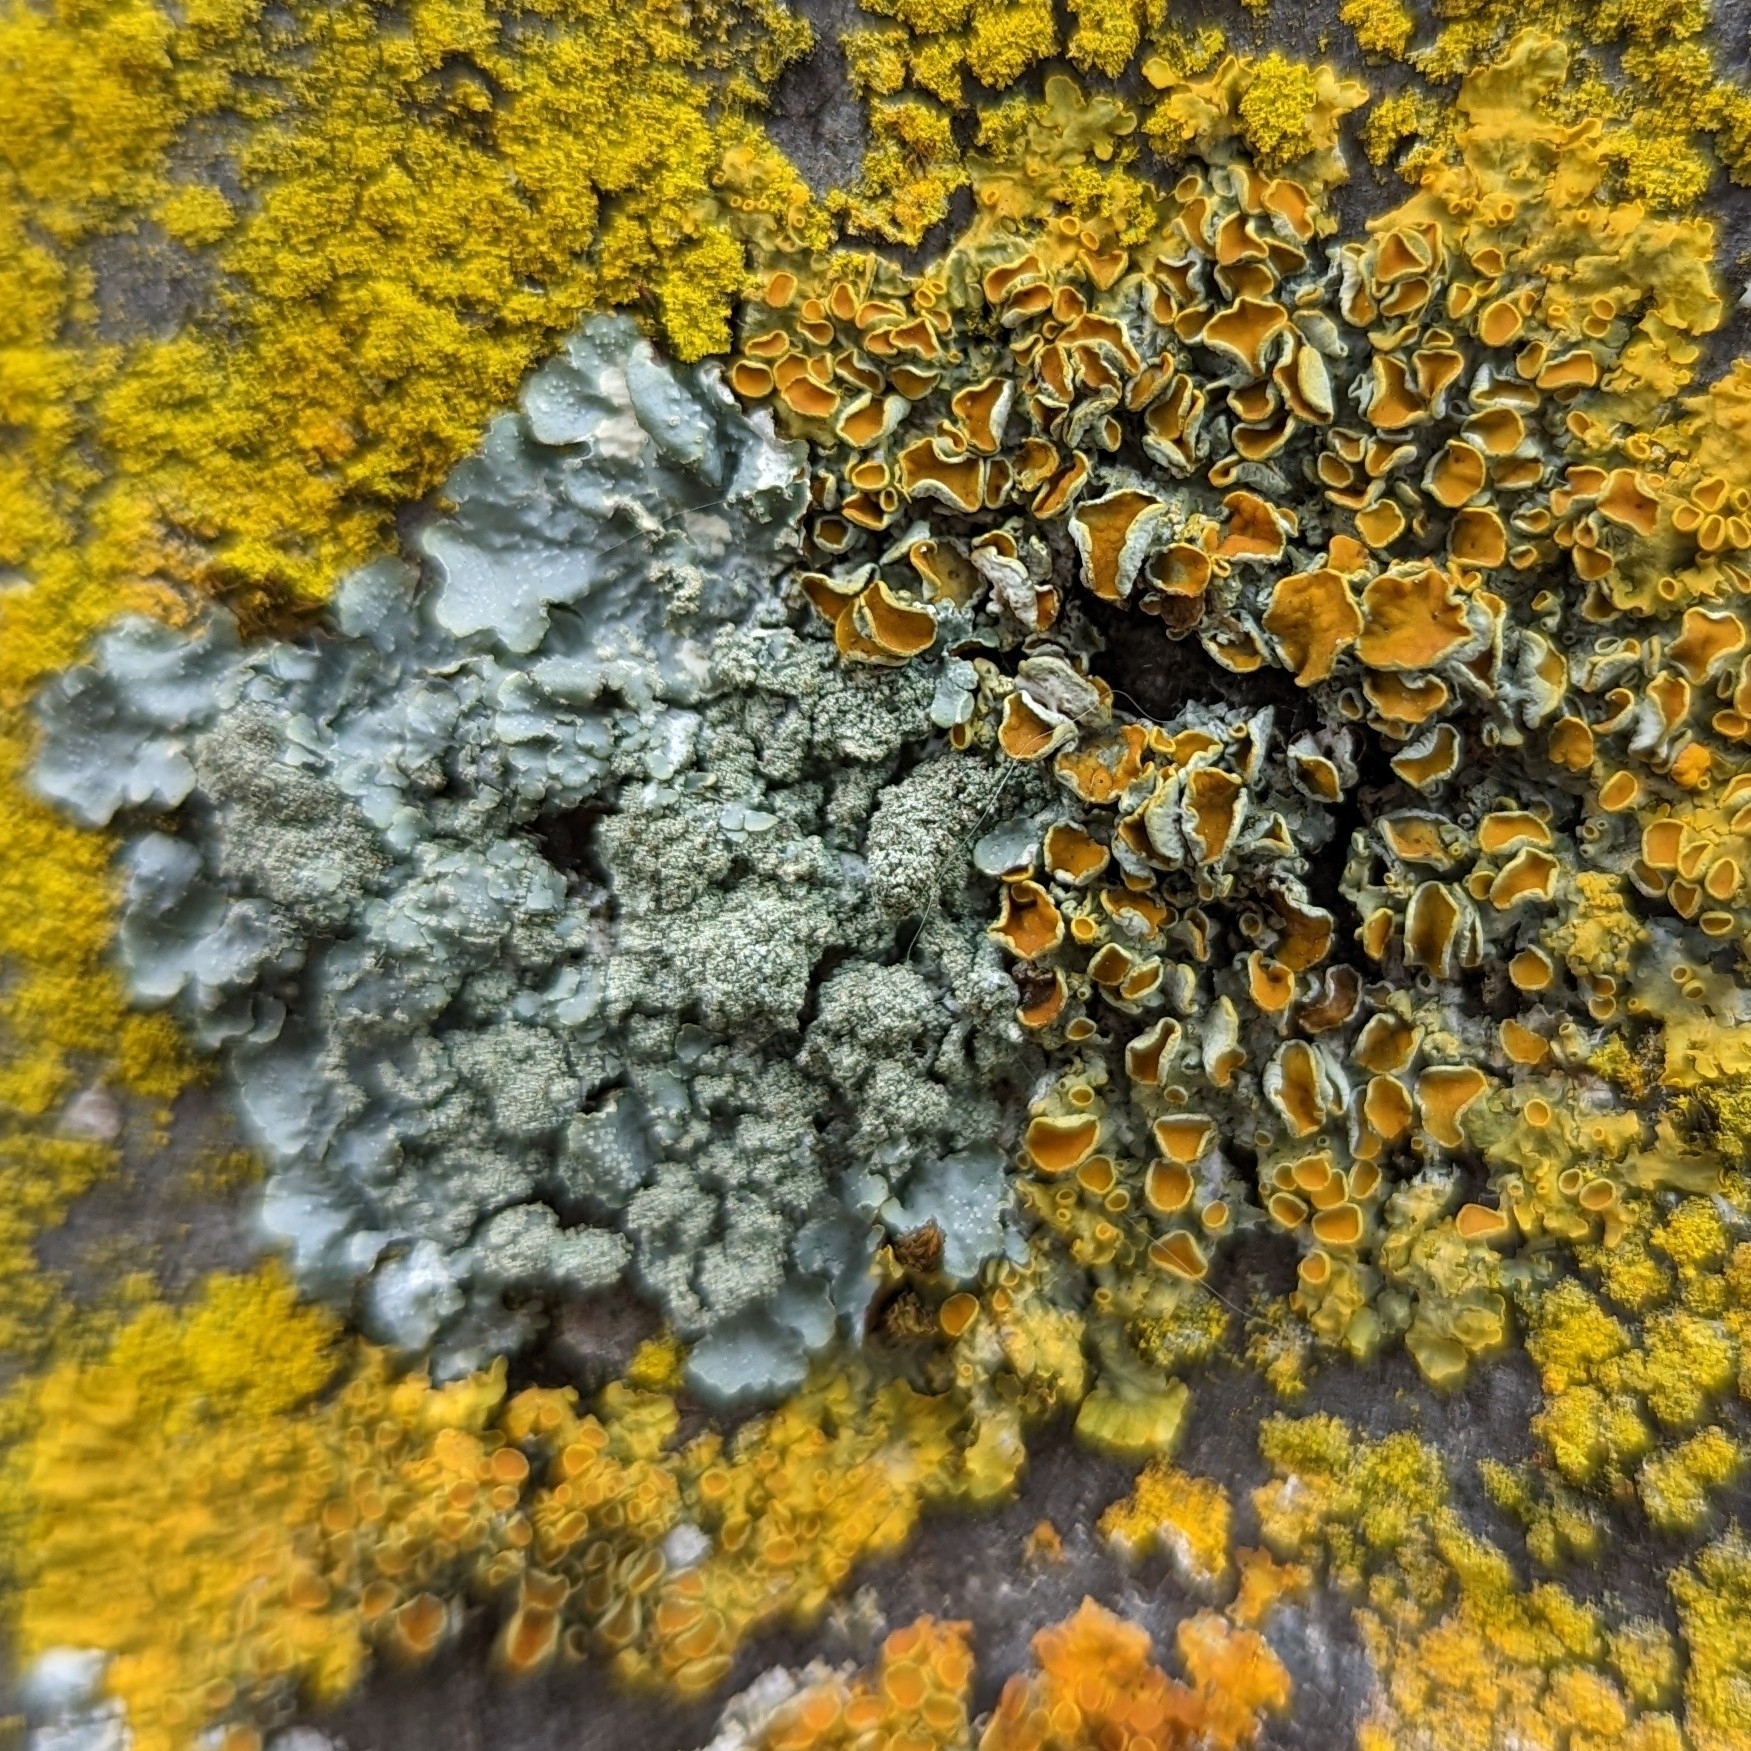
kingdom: Fungi
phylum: Ascomycota
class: Lecanoromycetes
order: Teloschistales
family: Teloschistaceae
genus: Xanthoria
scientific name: Xanthoria parietina
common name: Common orange lichen
